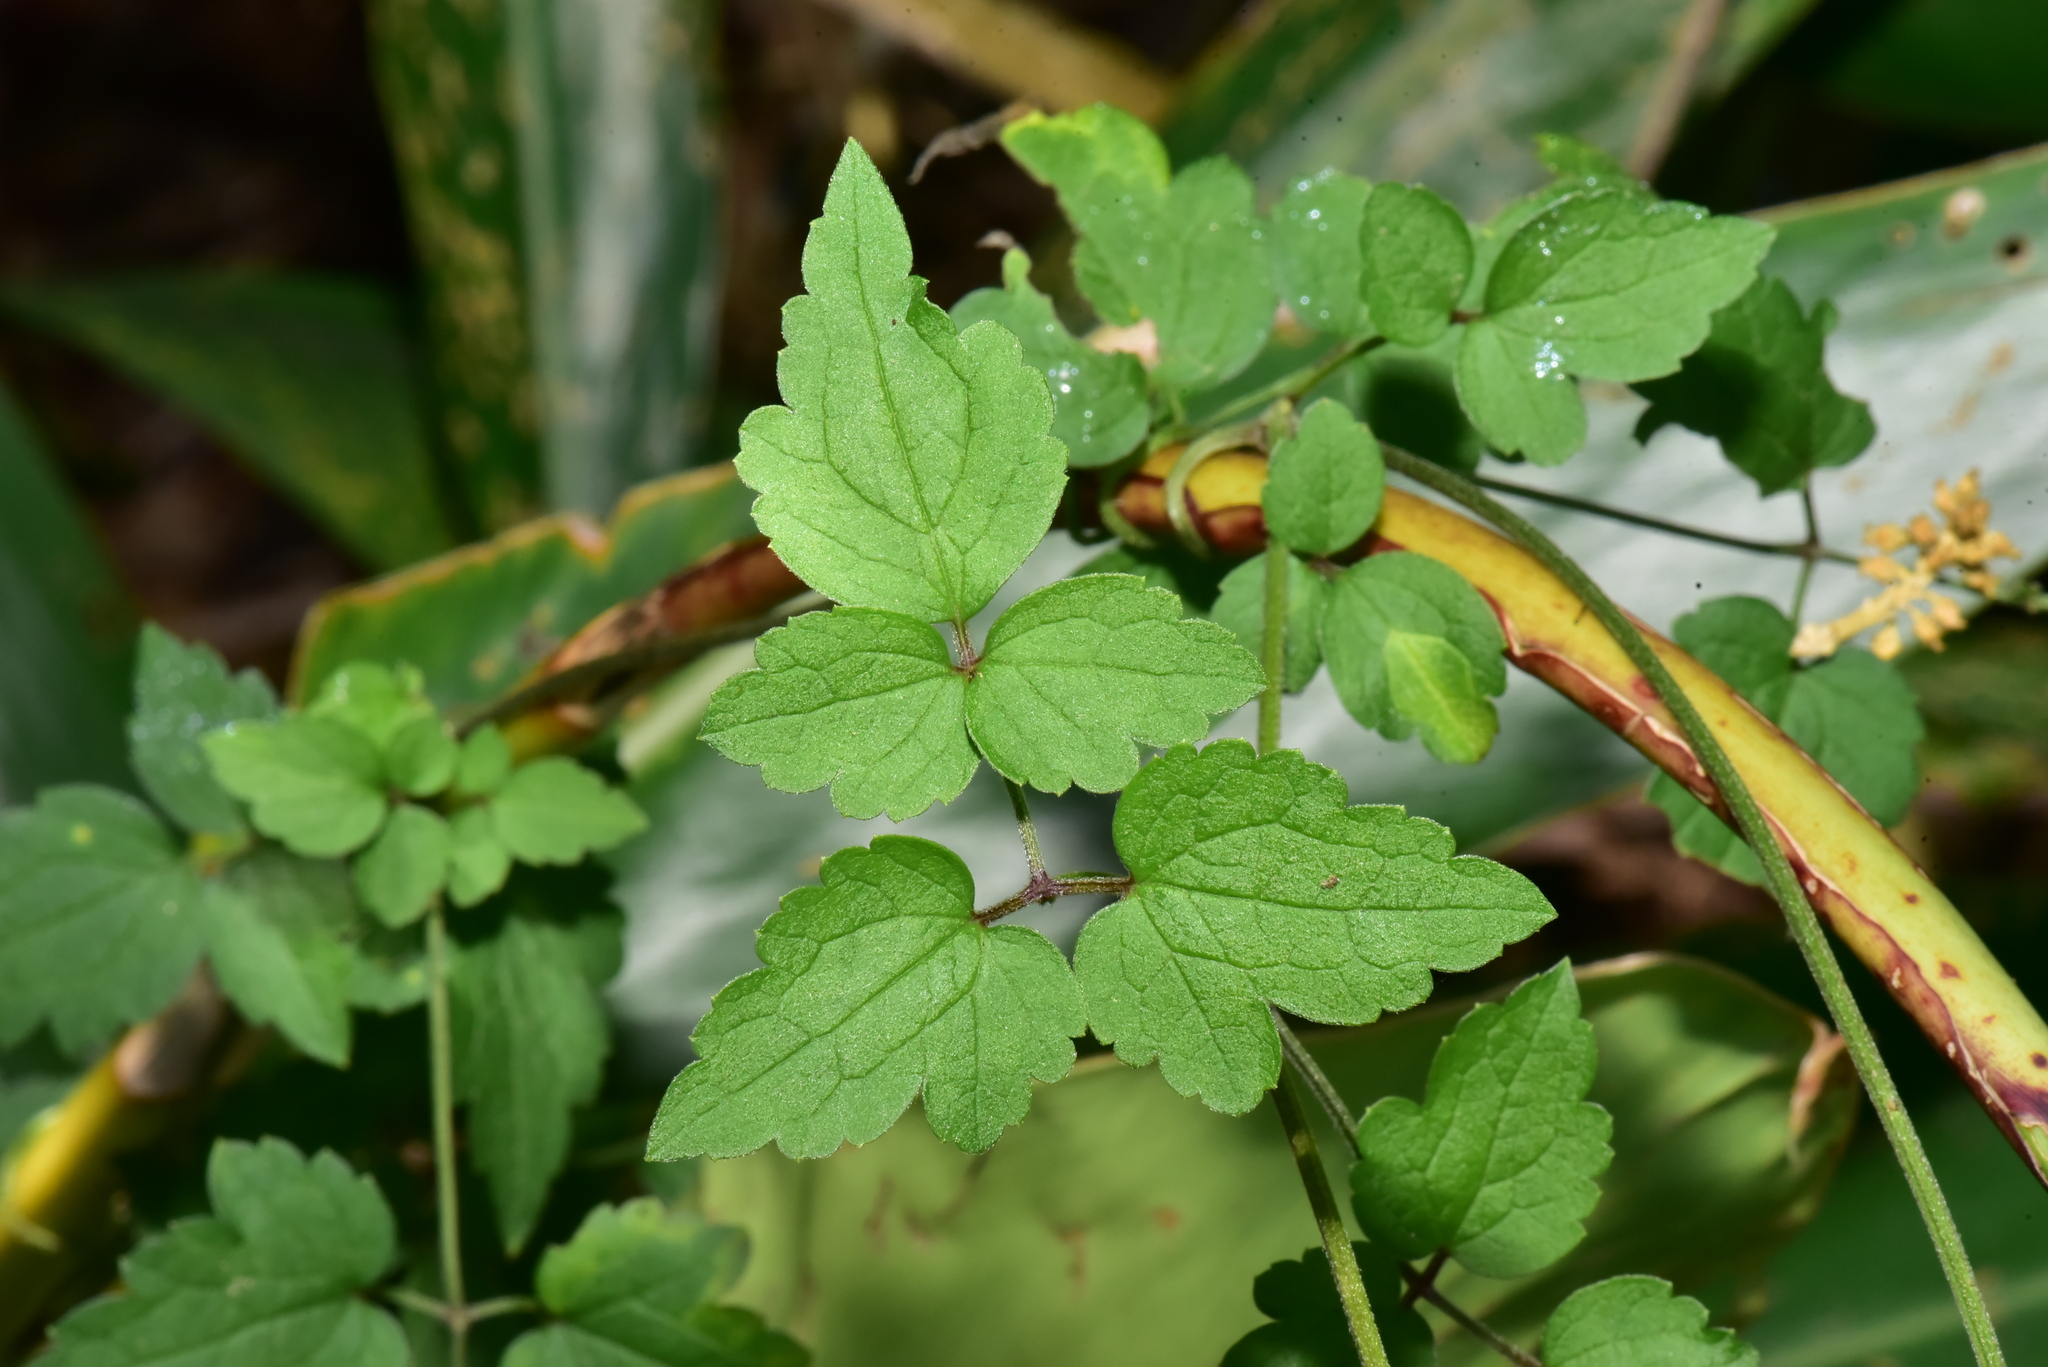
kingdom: Plantae
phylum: Tracheophyta
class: Magnoliopsida
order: Ranunculales
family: Ranunculaceae
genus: Clematis
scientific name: Clematis grata
